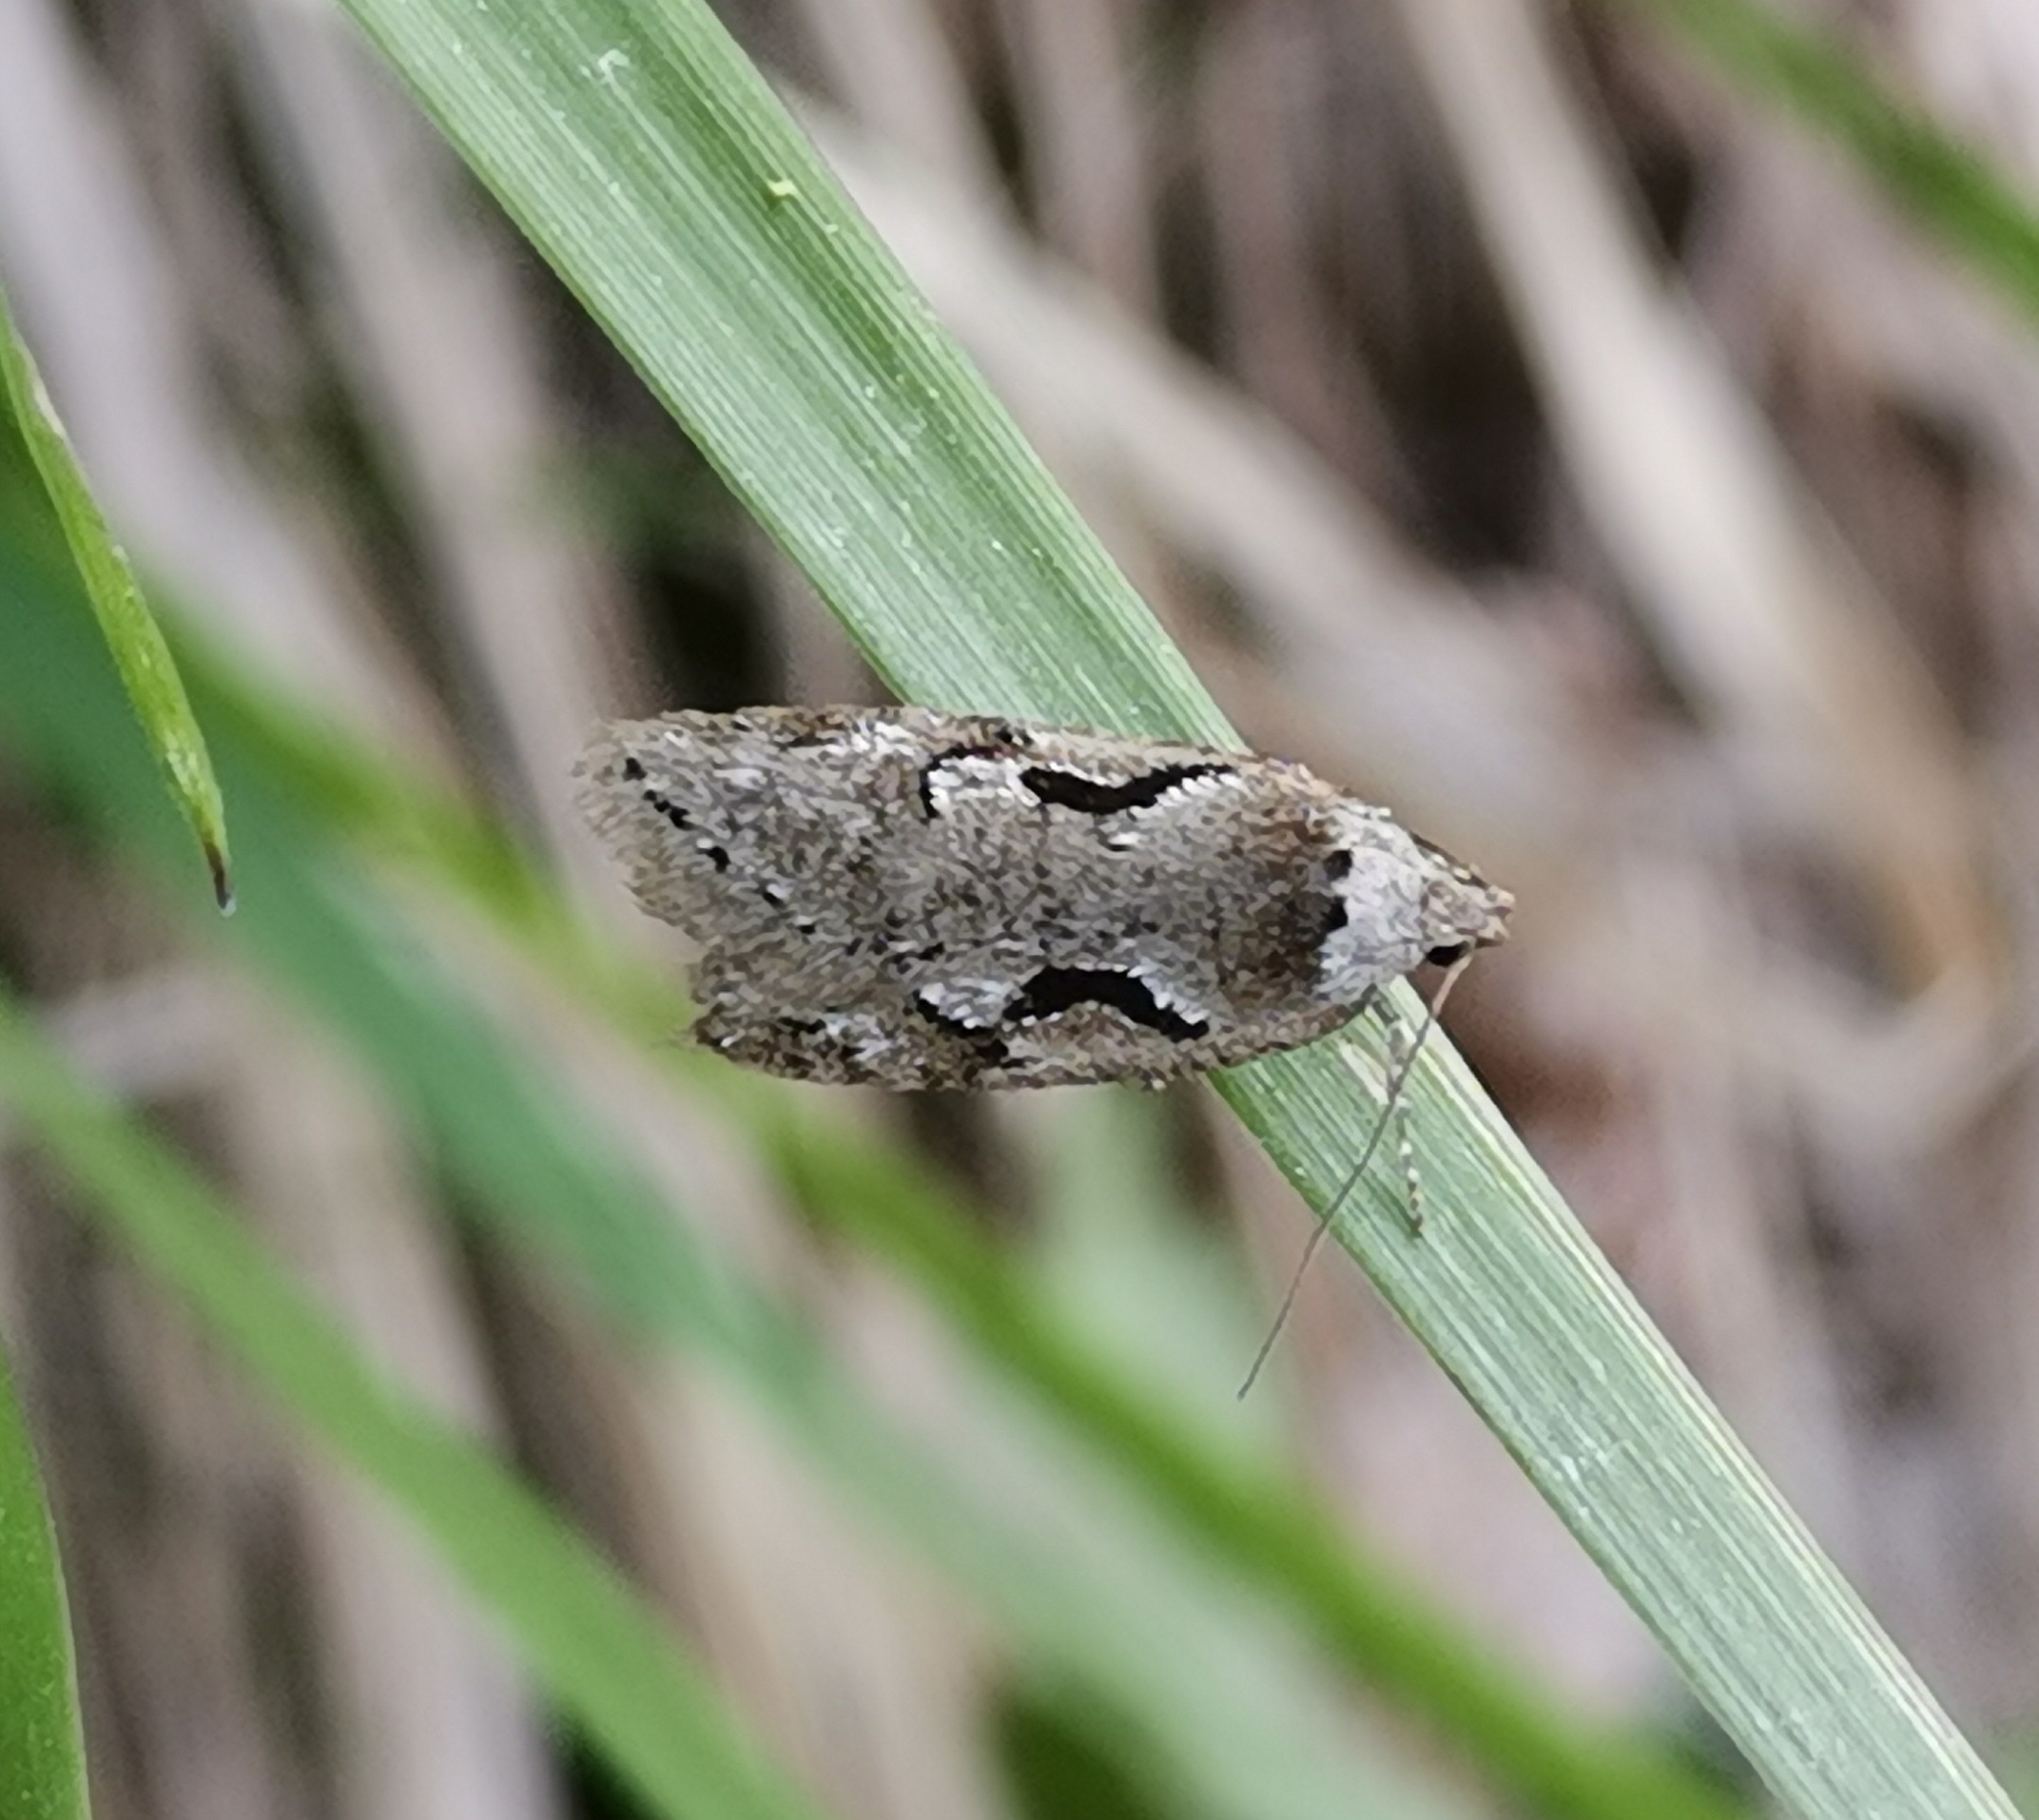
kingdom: Animalia
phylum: Arthropoda
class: Insecta
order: Lepidoptera
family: Depressariidae
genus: Semioscopis
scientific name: Semioscopis steinkellneriana
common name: Dawn flat-body
